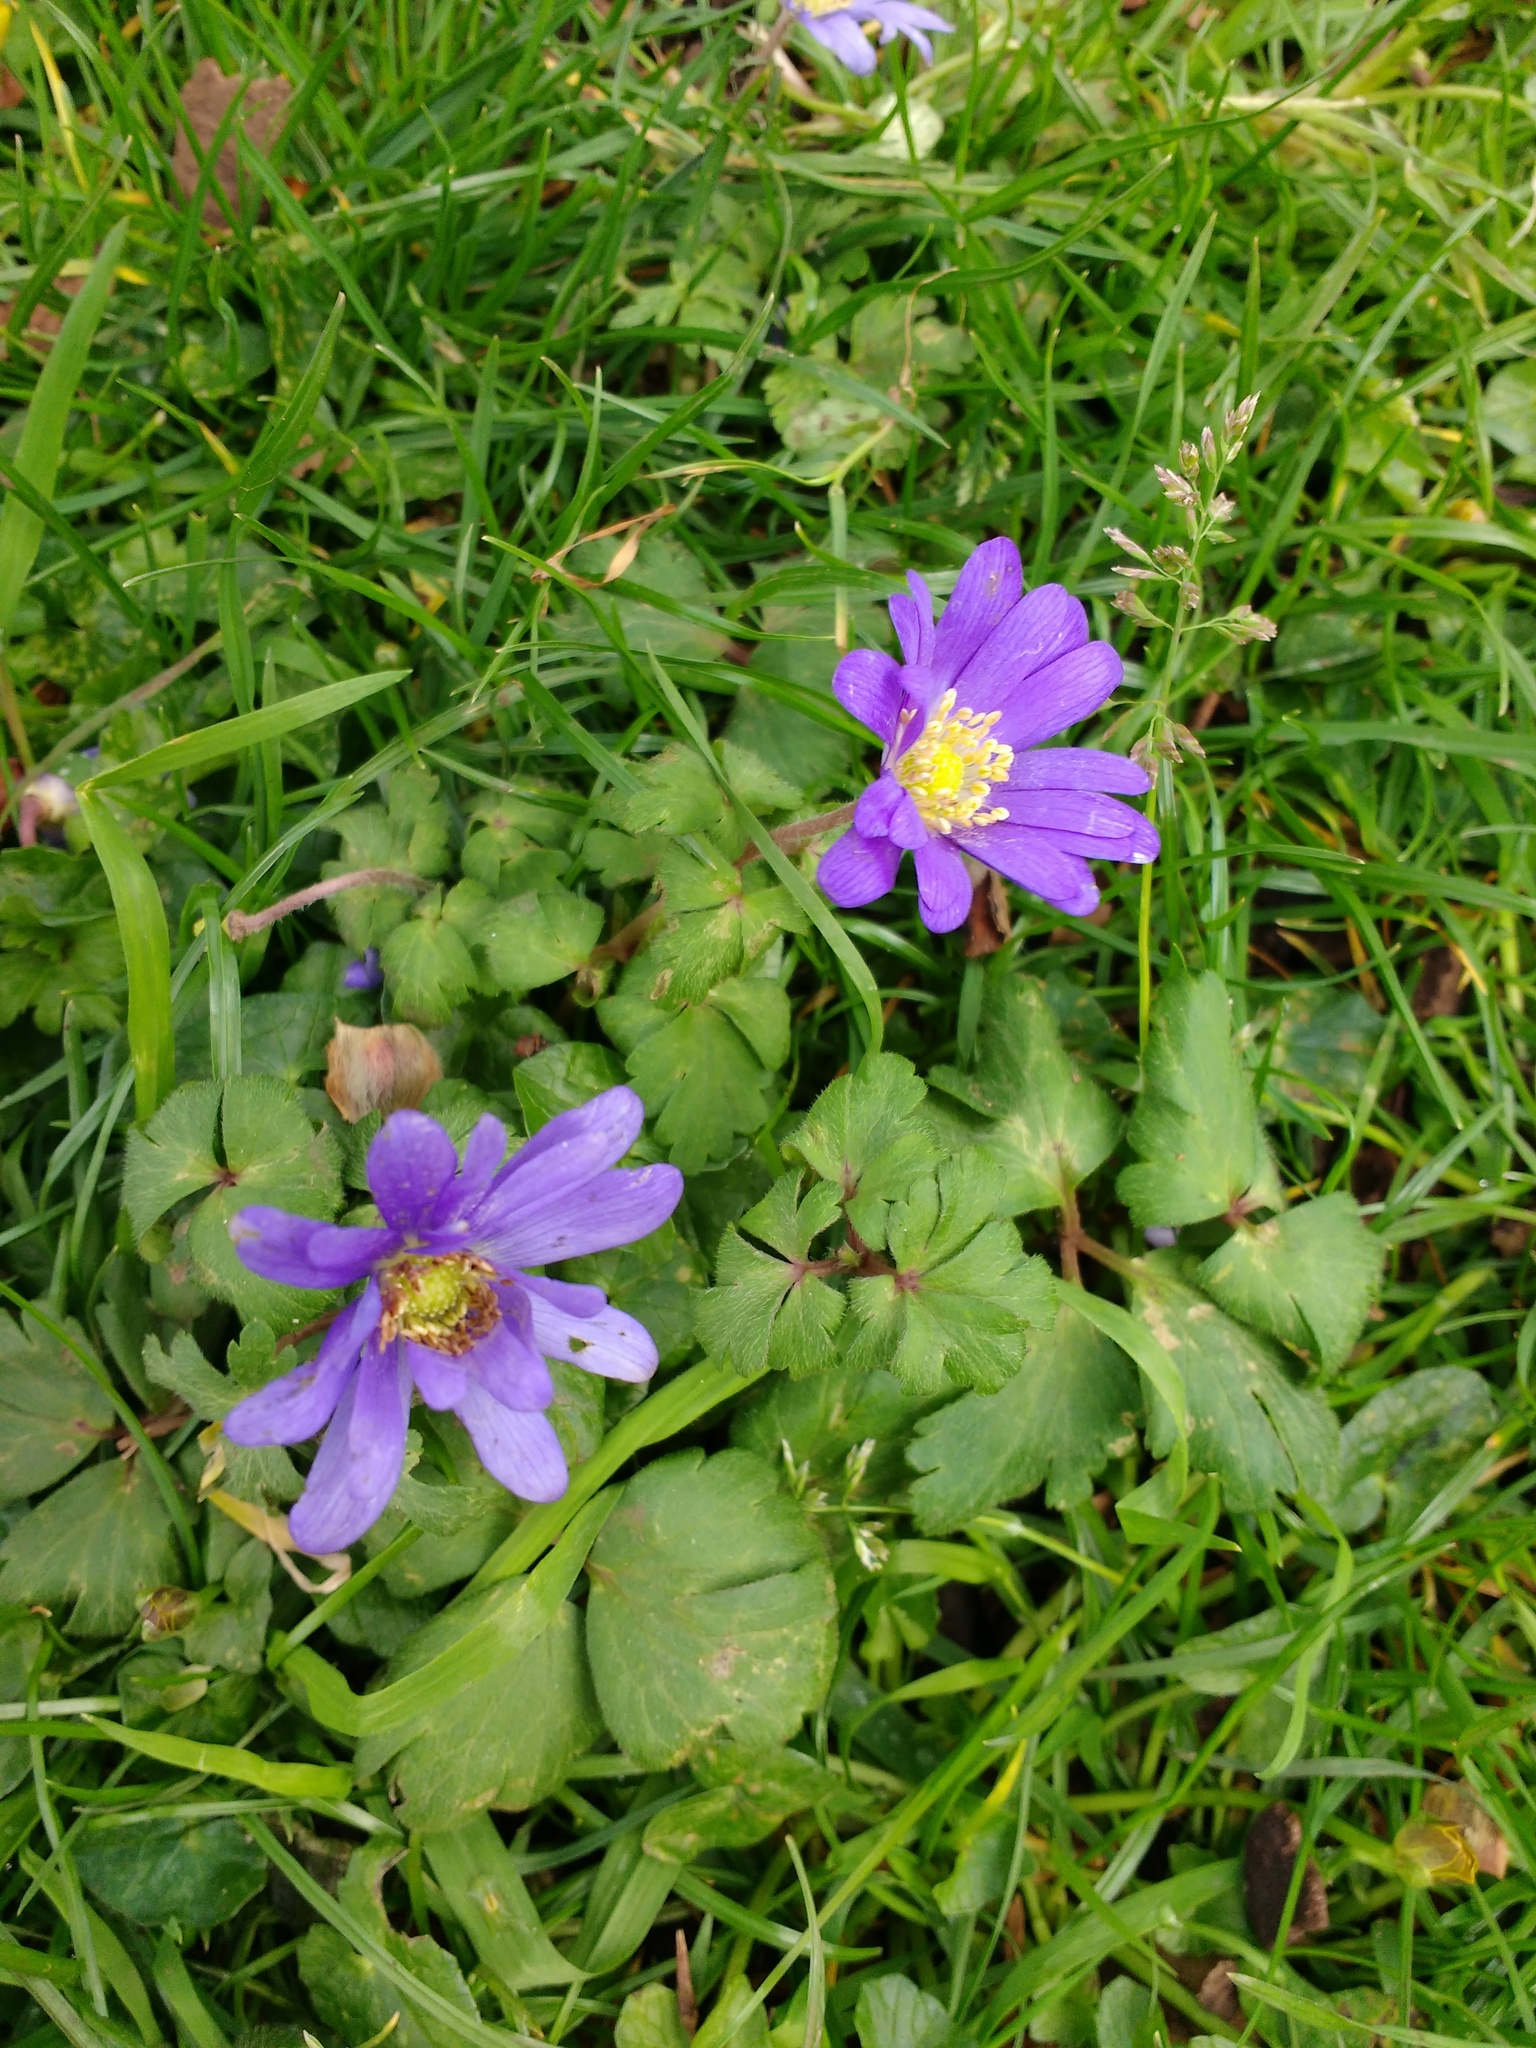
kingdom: Plantae
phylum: Tracheophyta
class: Magnoliopsida
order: Ranunculales
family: Ranunculaceae
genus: Anemone
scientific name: Anemone blanda
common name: Balkan anemone
